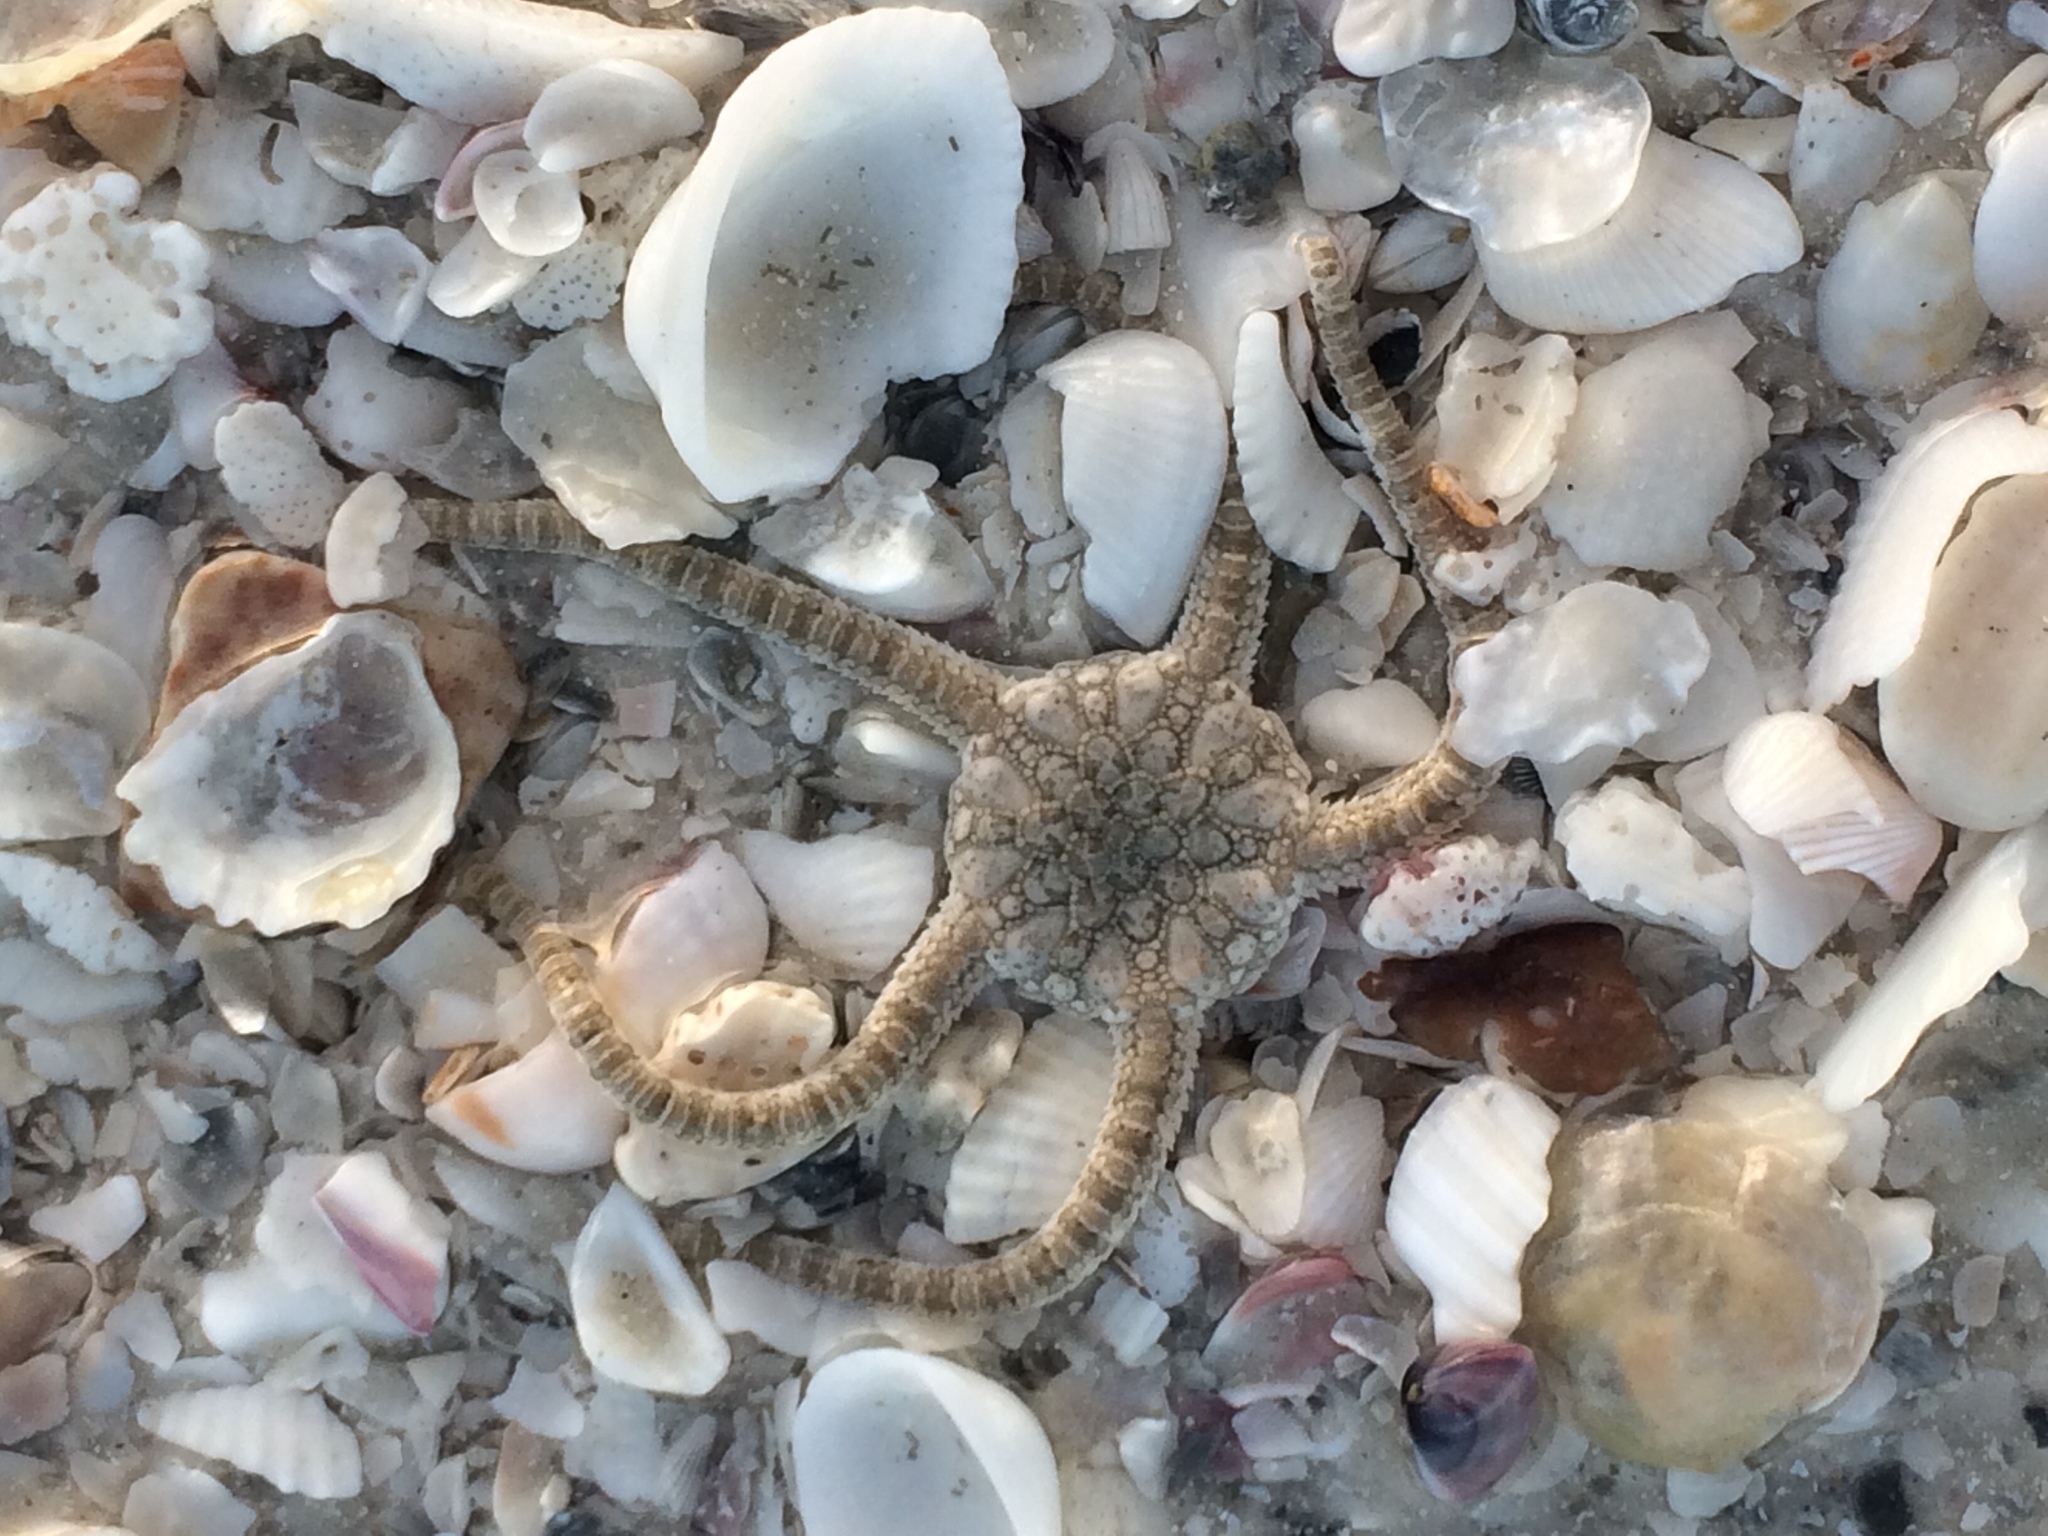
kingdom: Animalia
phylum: Echinodermata
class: Ophiuroidea
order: Amphilepidida
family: Ophiolepididae
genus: Ophiolepis
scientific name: Ophiolepis elegans
